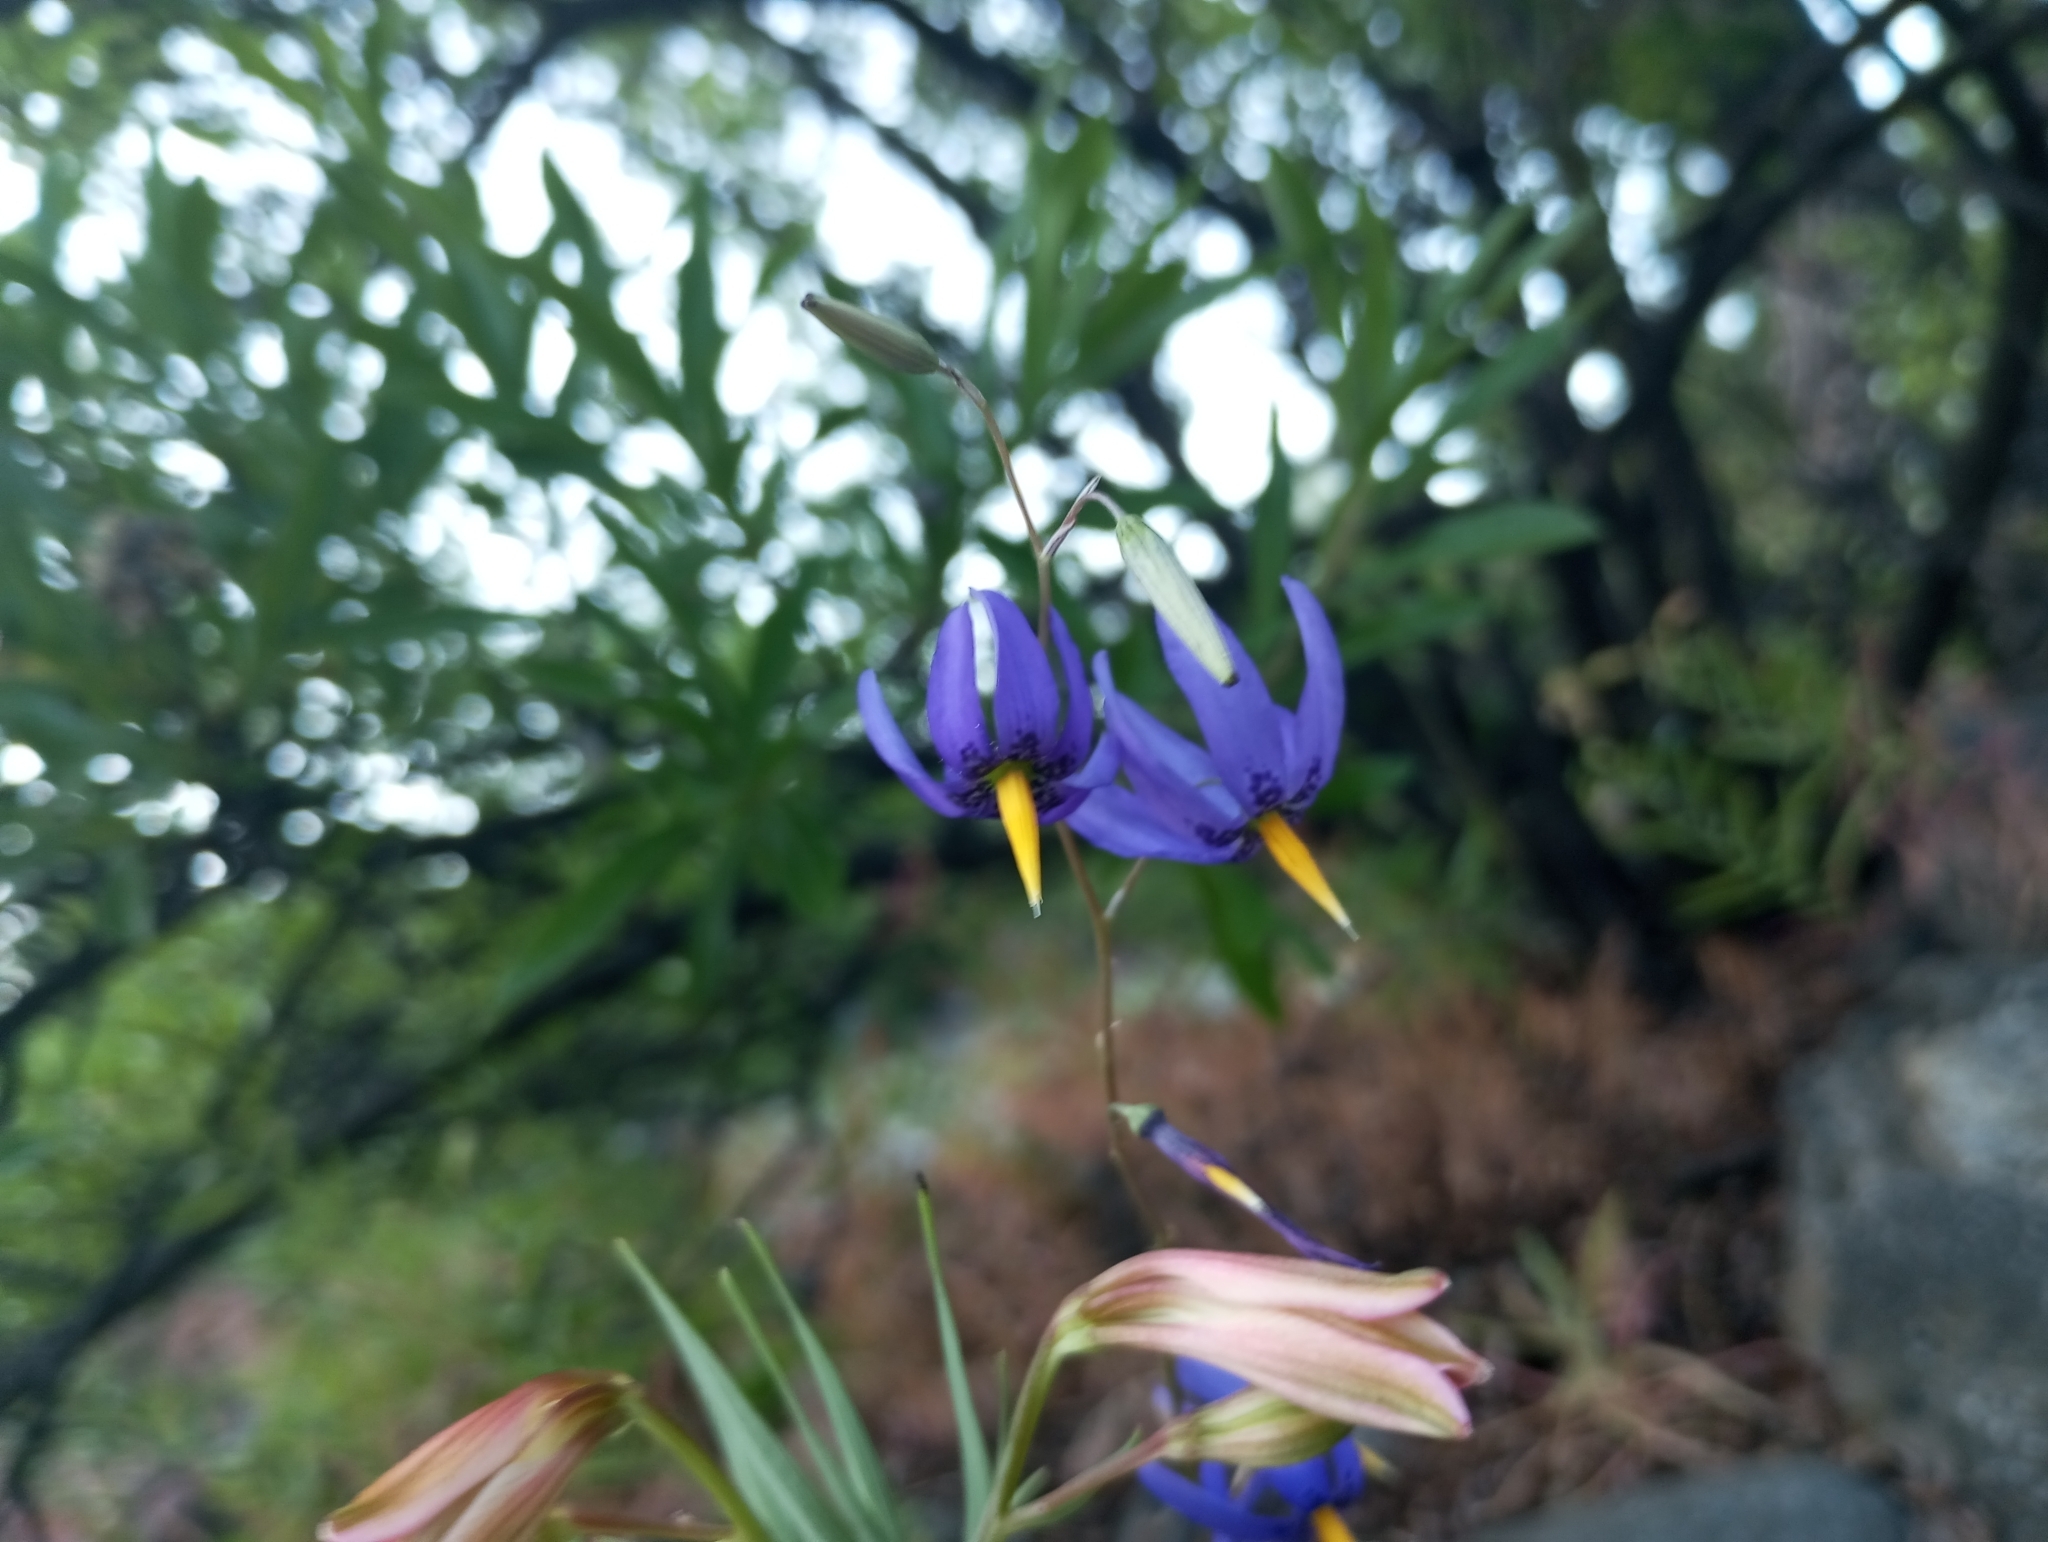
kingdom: Plantae
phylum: Tracheophyta
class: Liliopsida
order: Asparagales
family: Tecophilaeaceae
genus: Conanthera
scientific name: Conanthera bifolia
